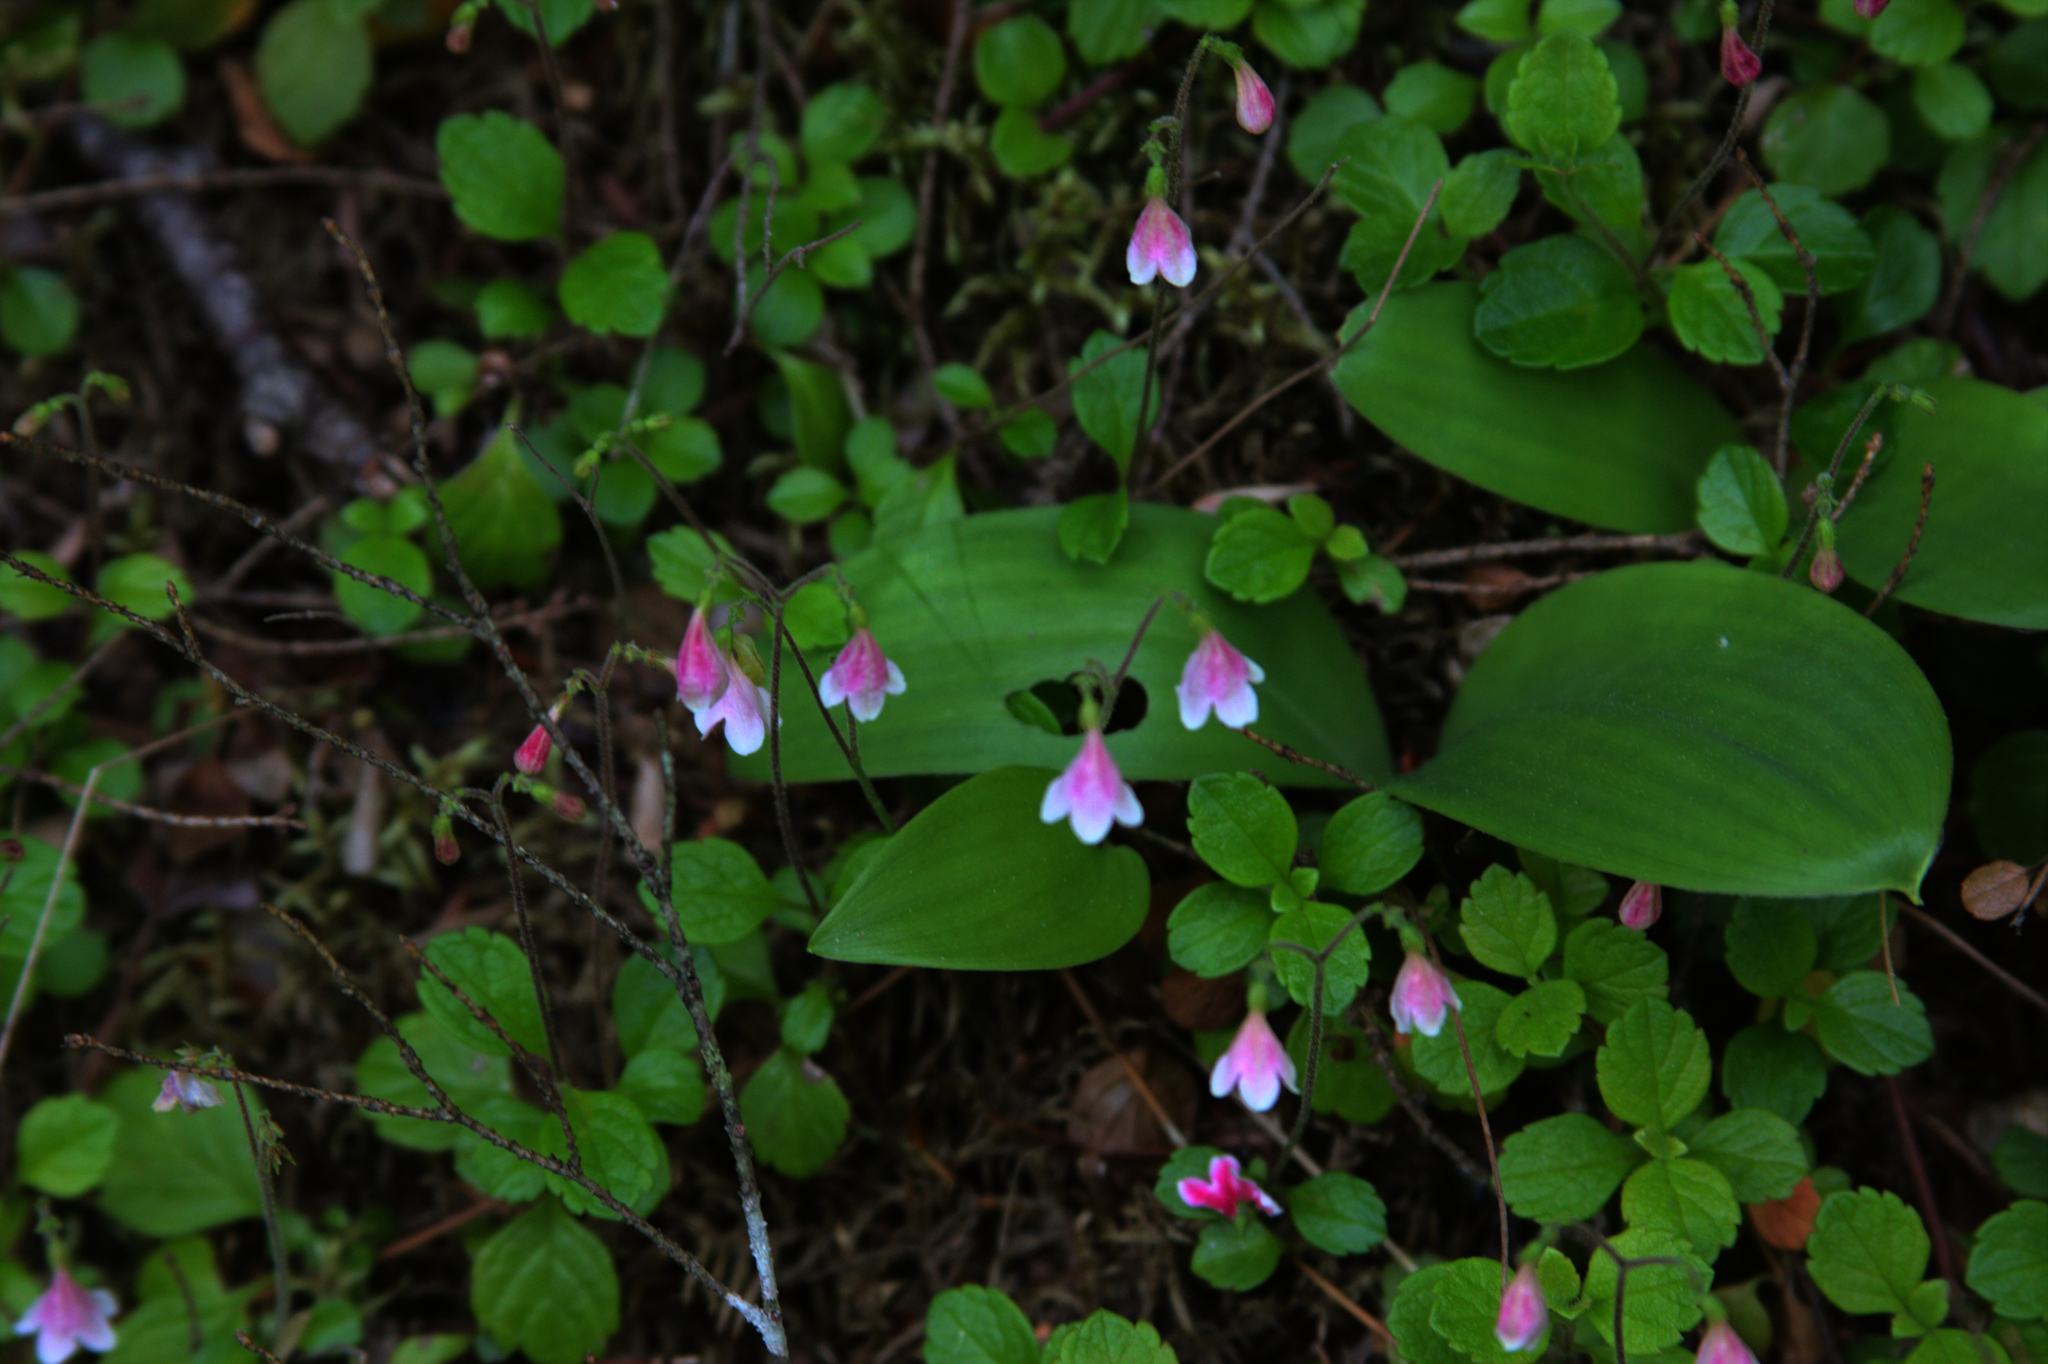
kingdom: Plantae
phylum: Tracheophyta
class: Liliopsida
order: Liliales
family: Liliaceae
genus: Clintonia
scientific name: Clintonia borealis
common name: Yellow clintonia
